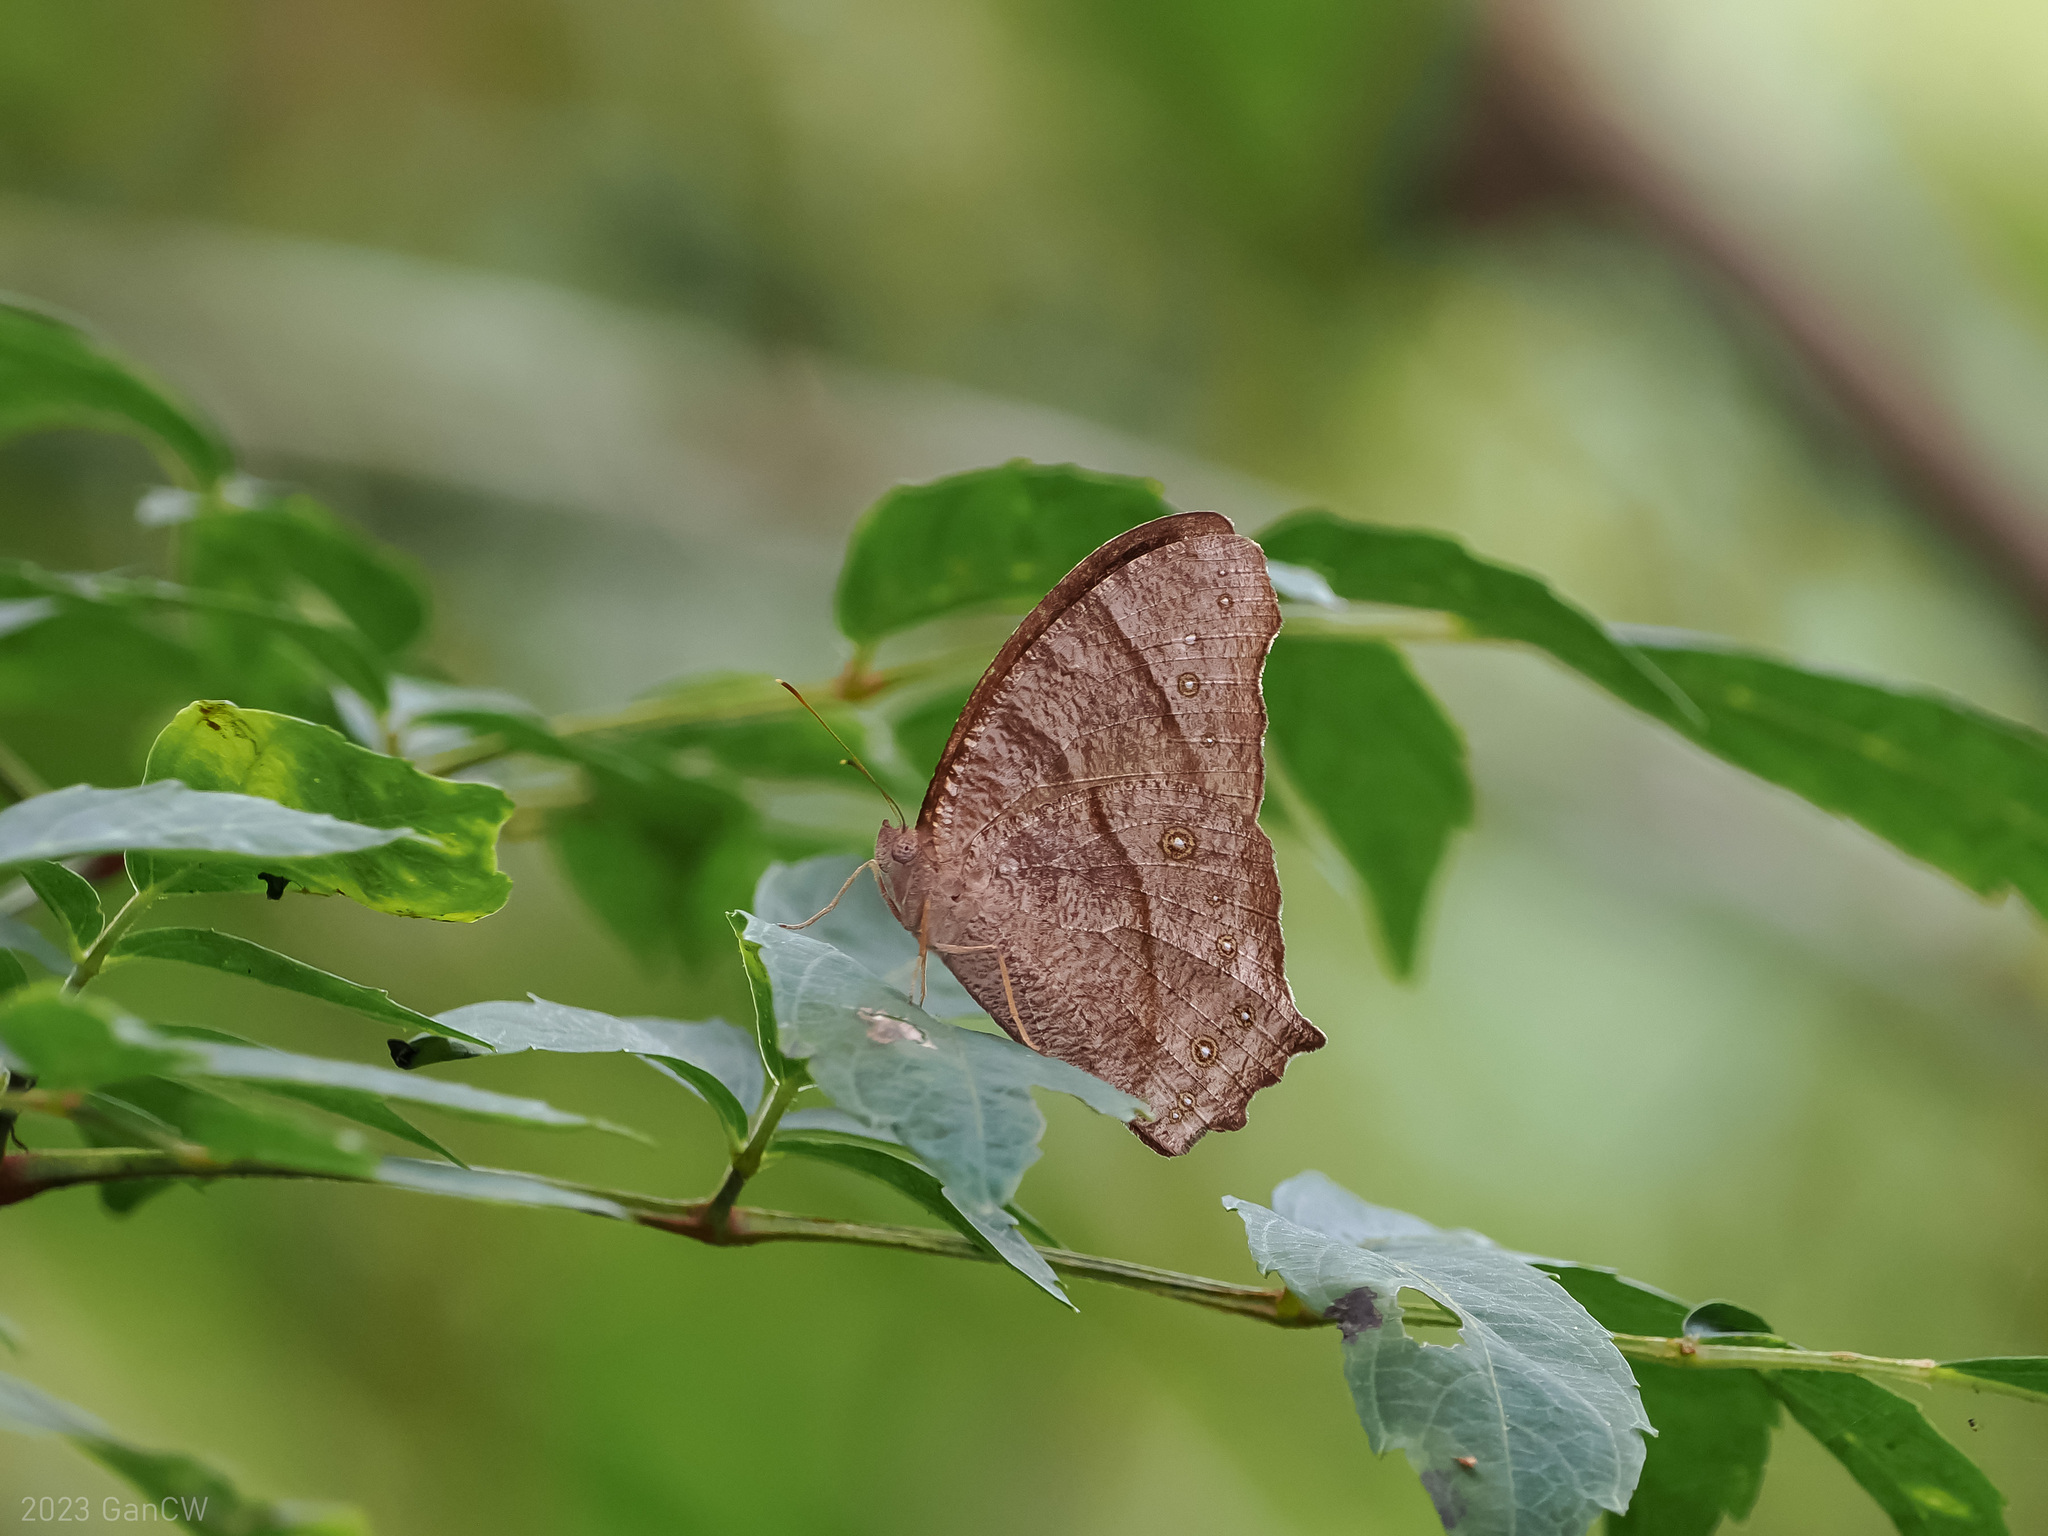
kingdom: Animalia
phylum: Arthropoda
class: Insecta
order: Lepidoptera
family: Nymphalidae
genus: Melanitis
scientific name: Melanitis leda
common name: Twilight brown
